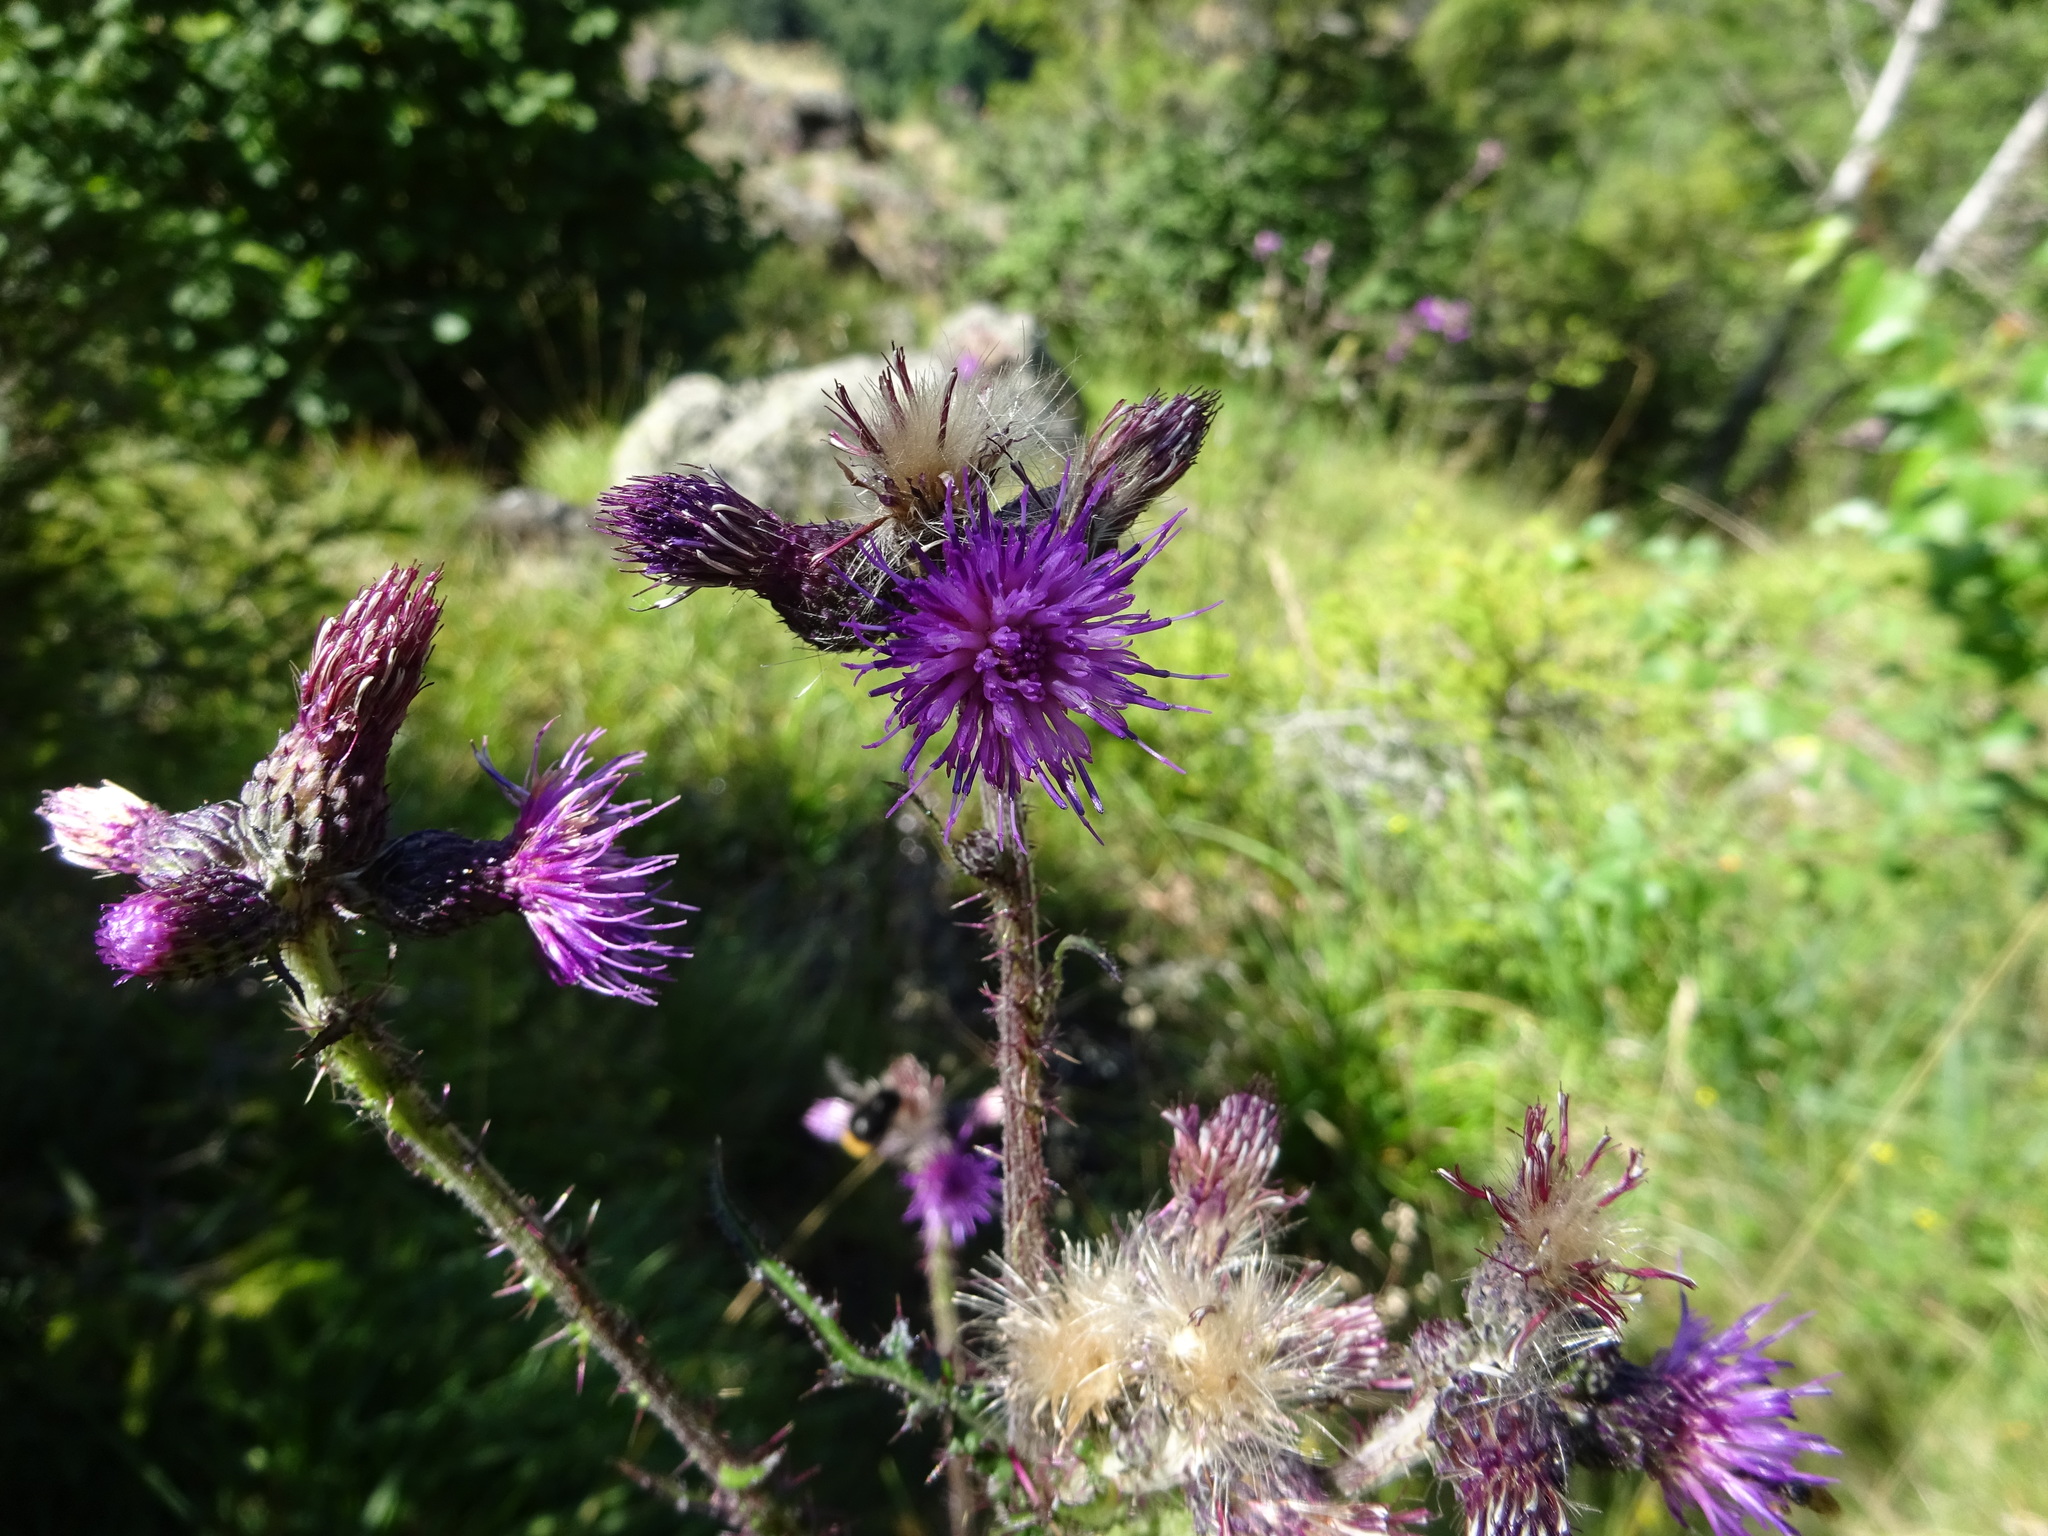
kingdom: Plantae
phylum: Tracheophyta
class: Magnoliopsida
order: Asterales
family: Asteraceae
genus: Cirsium
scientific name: Cirsium palustre
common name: Marsh thistle
